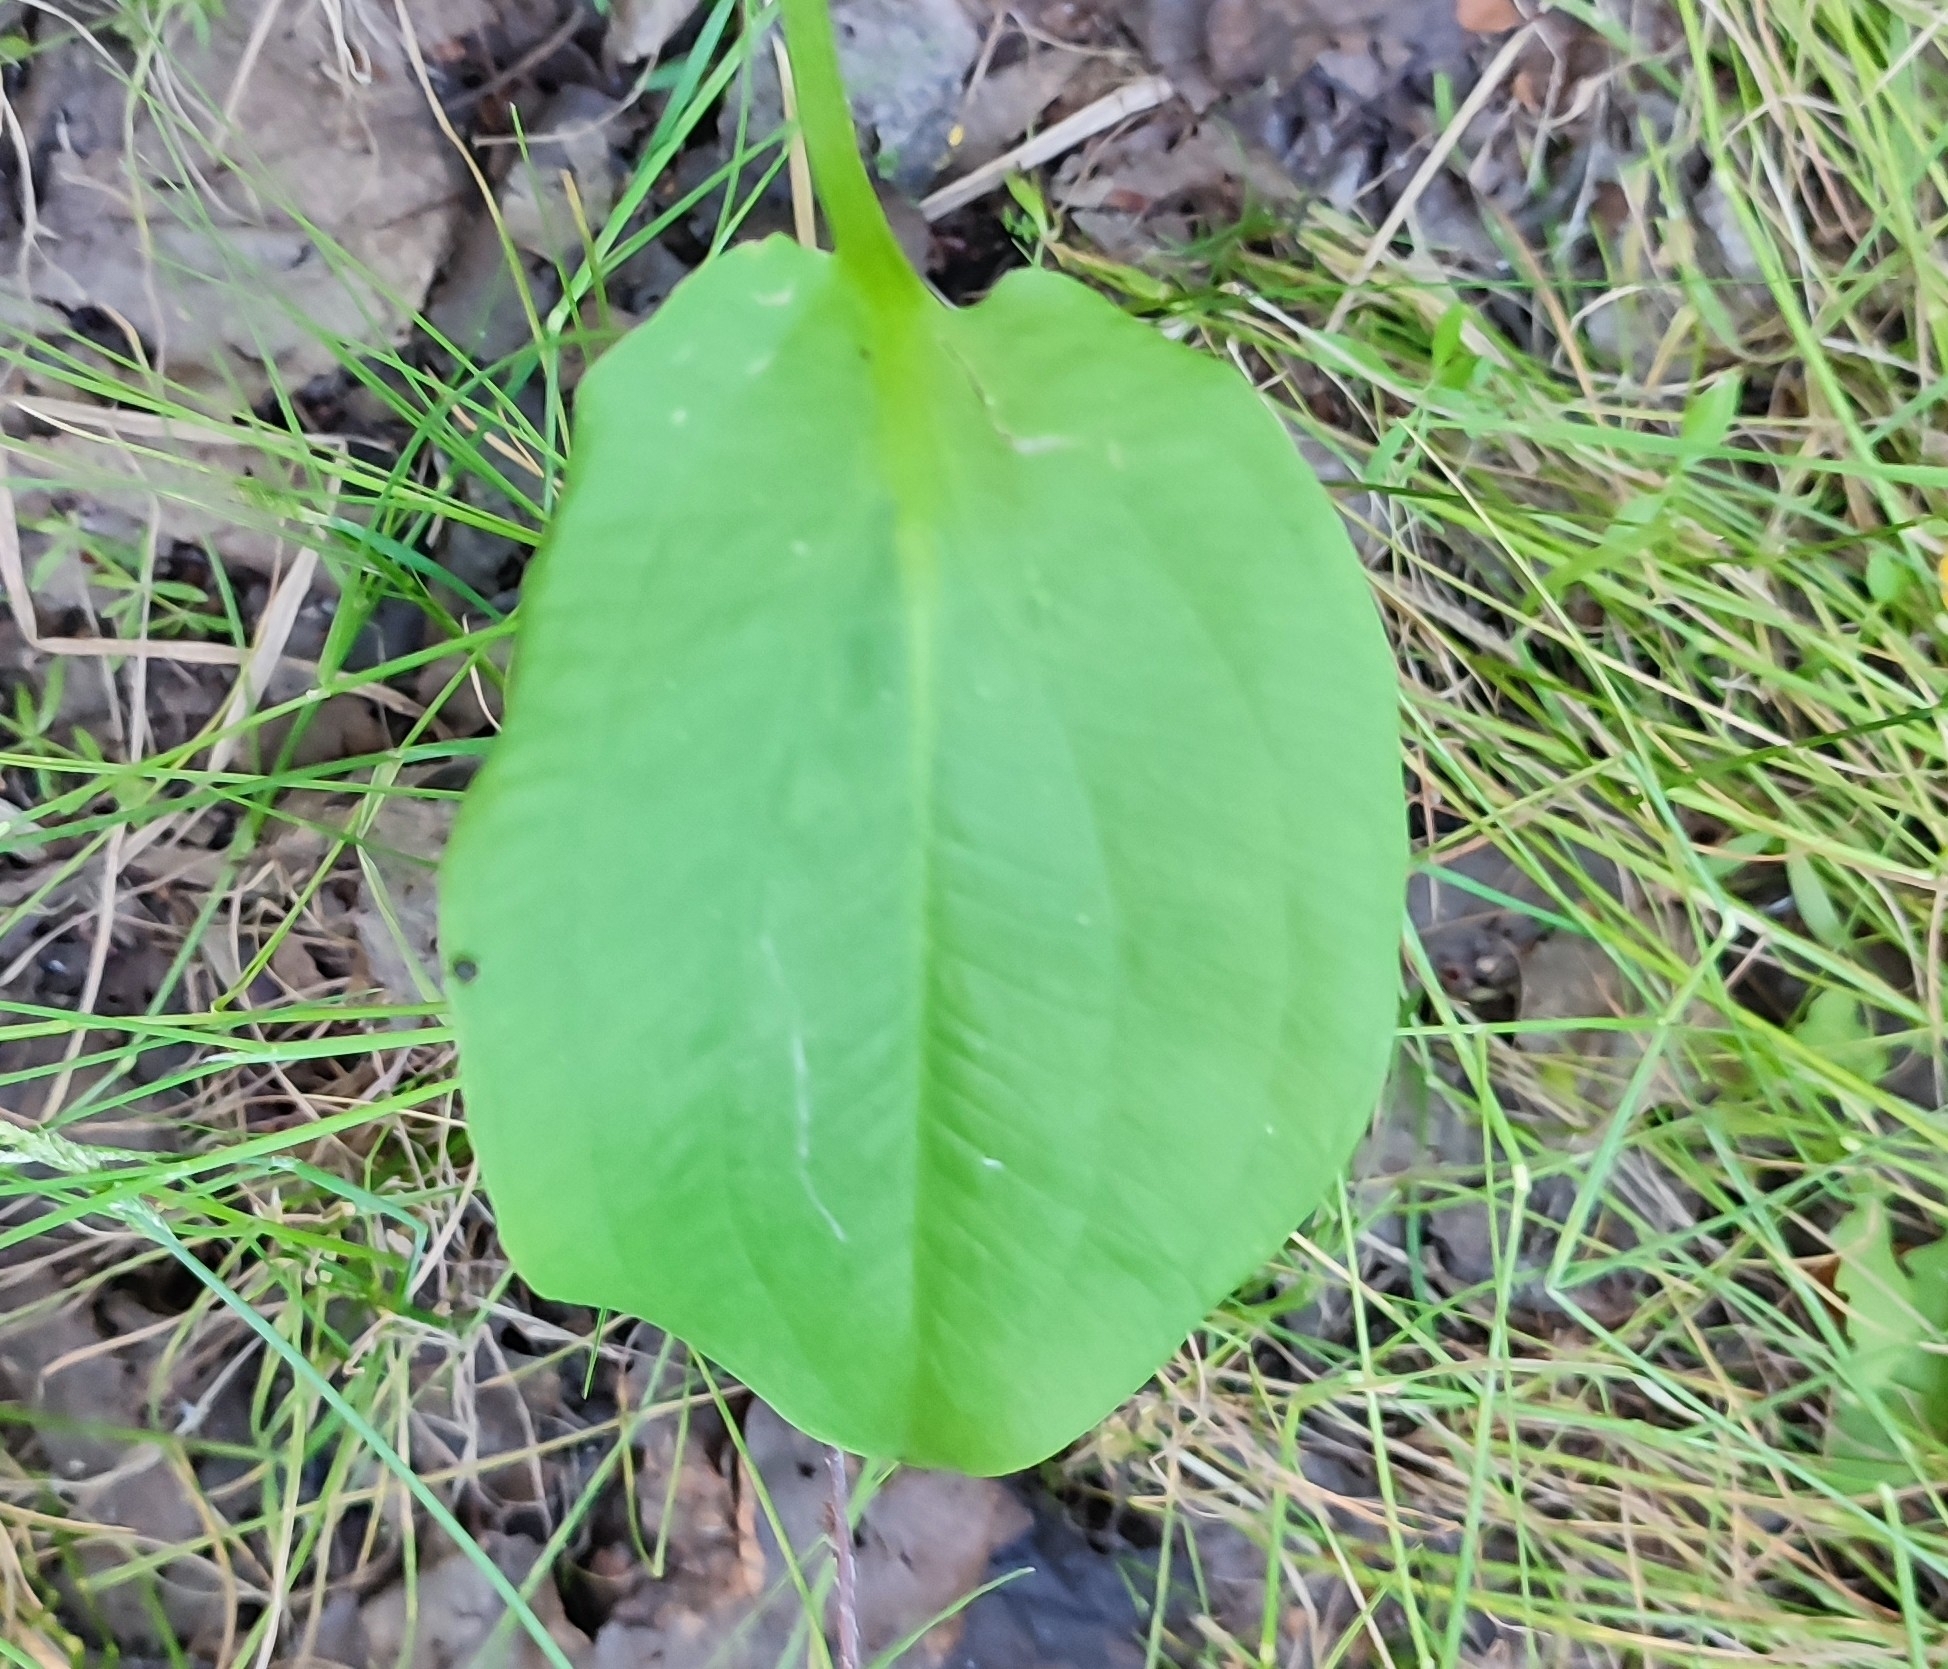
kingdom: Plantae
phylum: Tracheophyta
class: Liliopsida
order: Alismatales
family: Alismataceae
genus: Alisma
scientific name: Alisma plantago-aquatica
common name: Water-plantain
